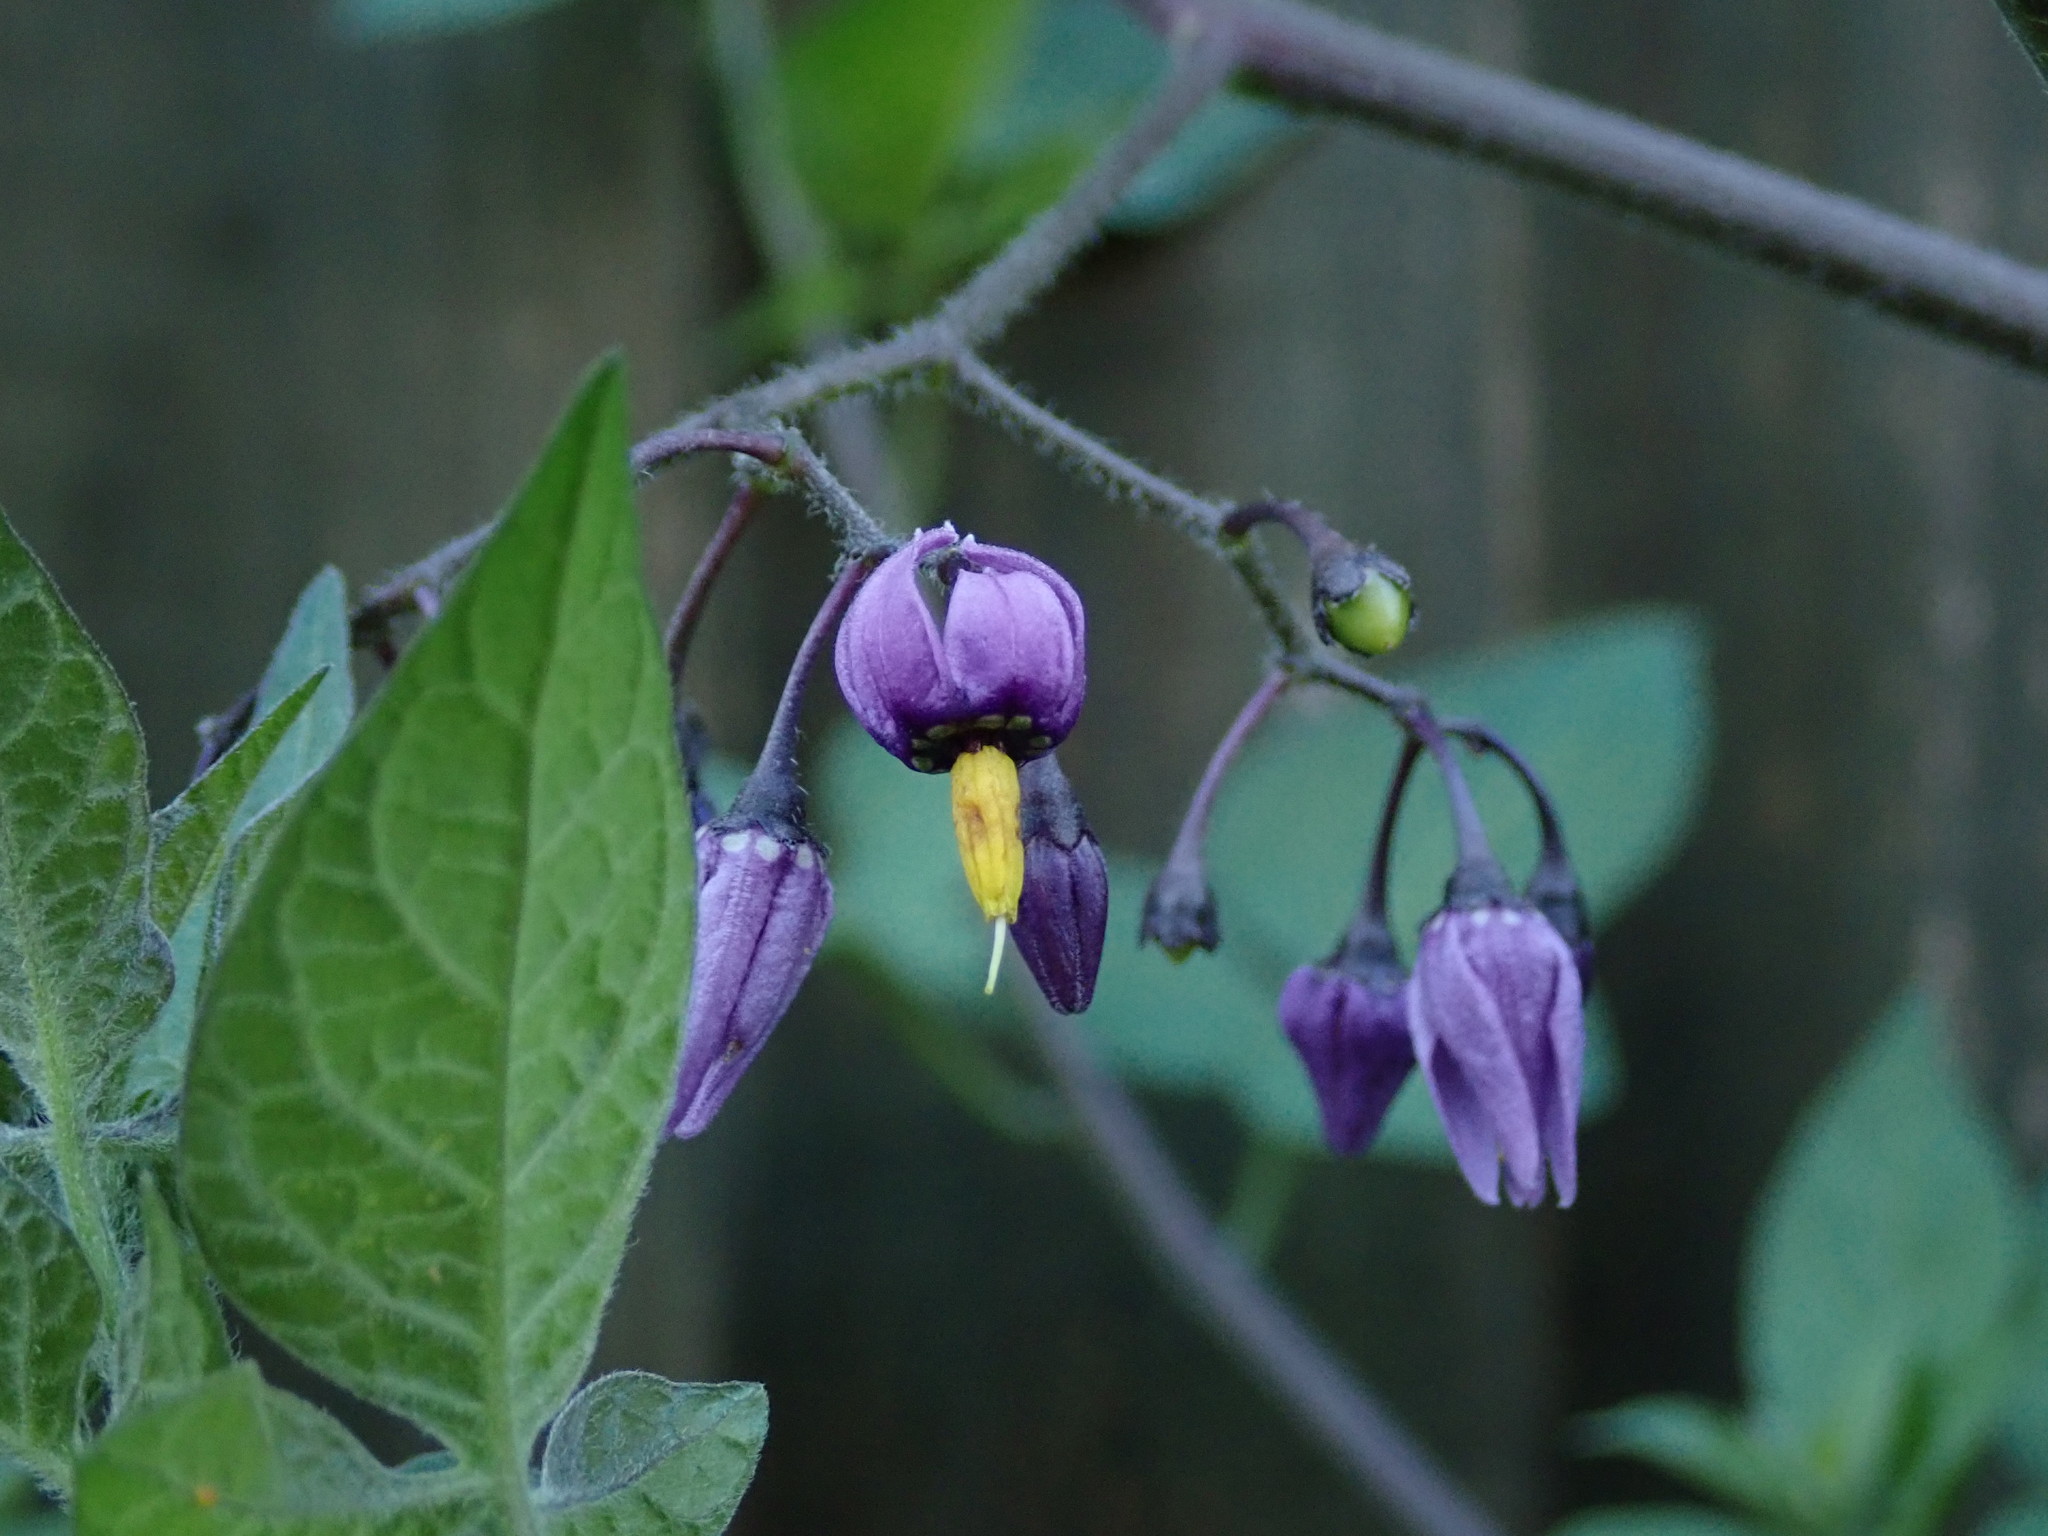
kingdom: Plantae
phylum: Tracheophyta
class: Magnoliopsida
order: Solanales
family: Solanaceae
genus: Solanum
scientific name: Solanum dulcamara
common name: Climbing nightshade
